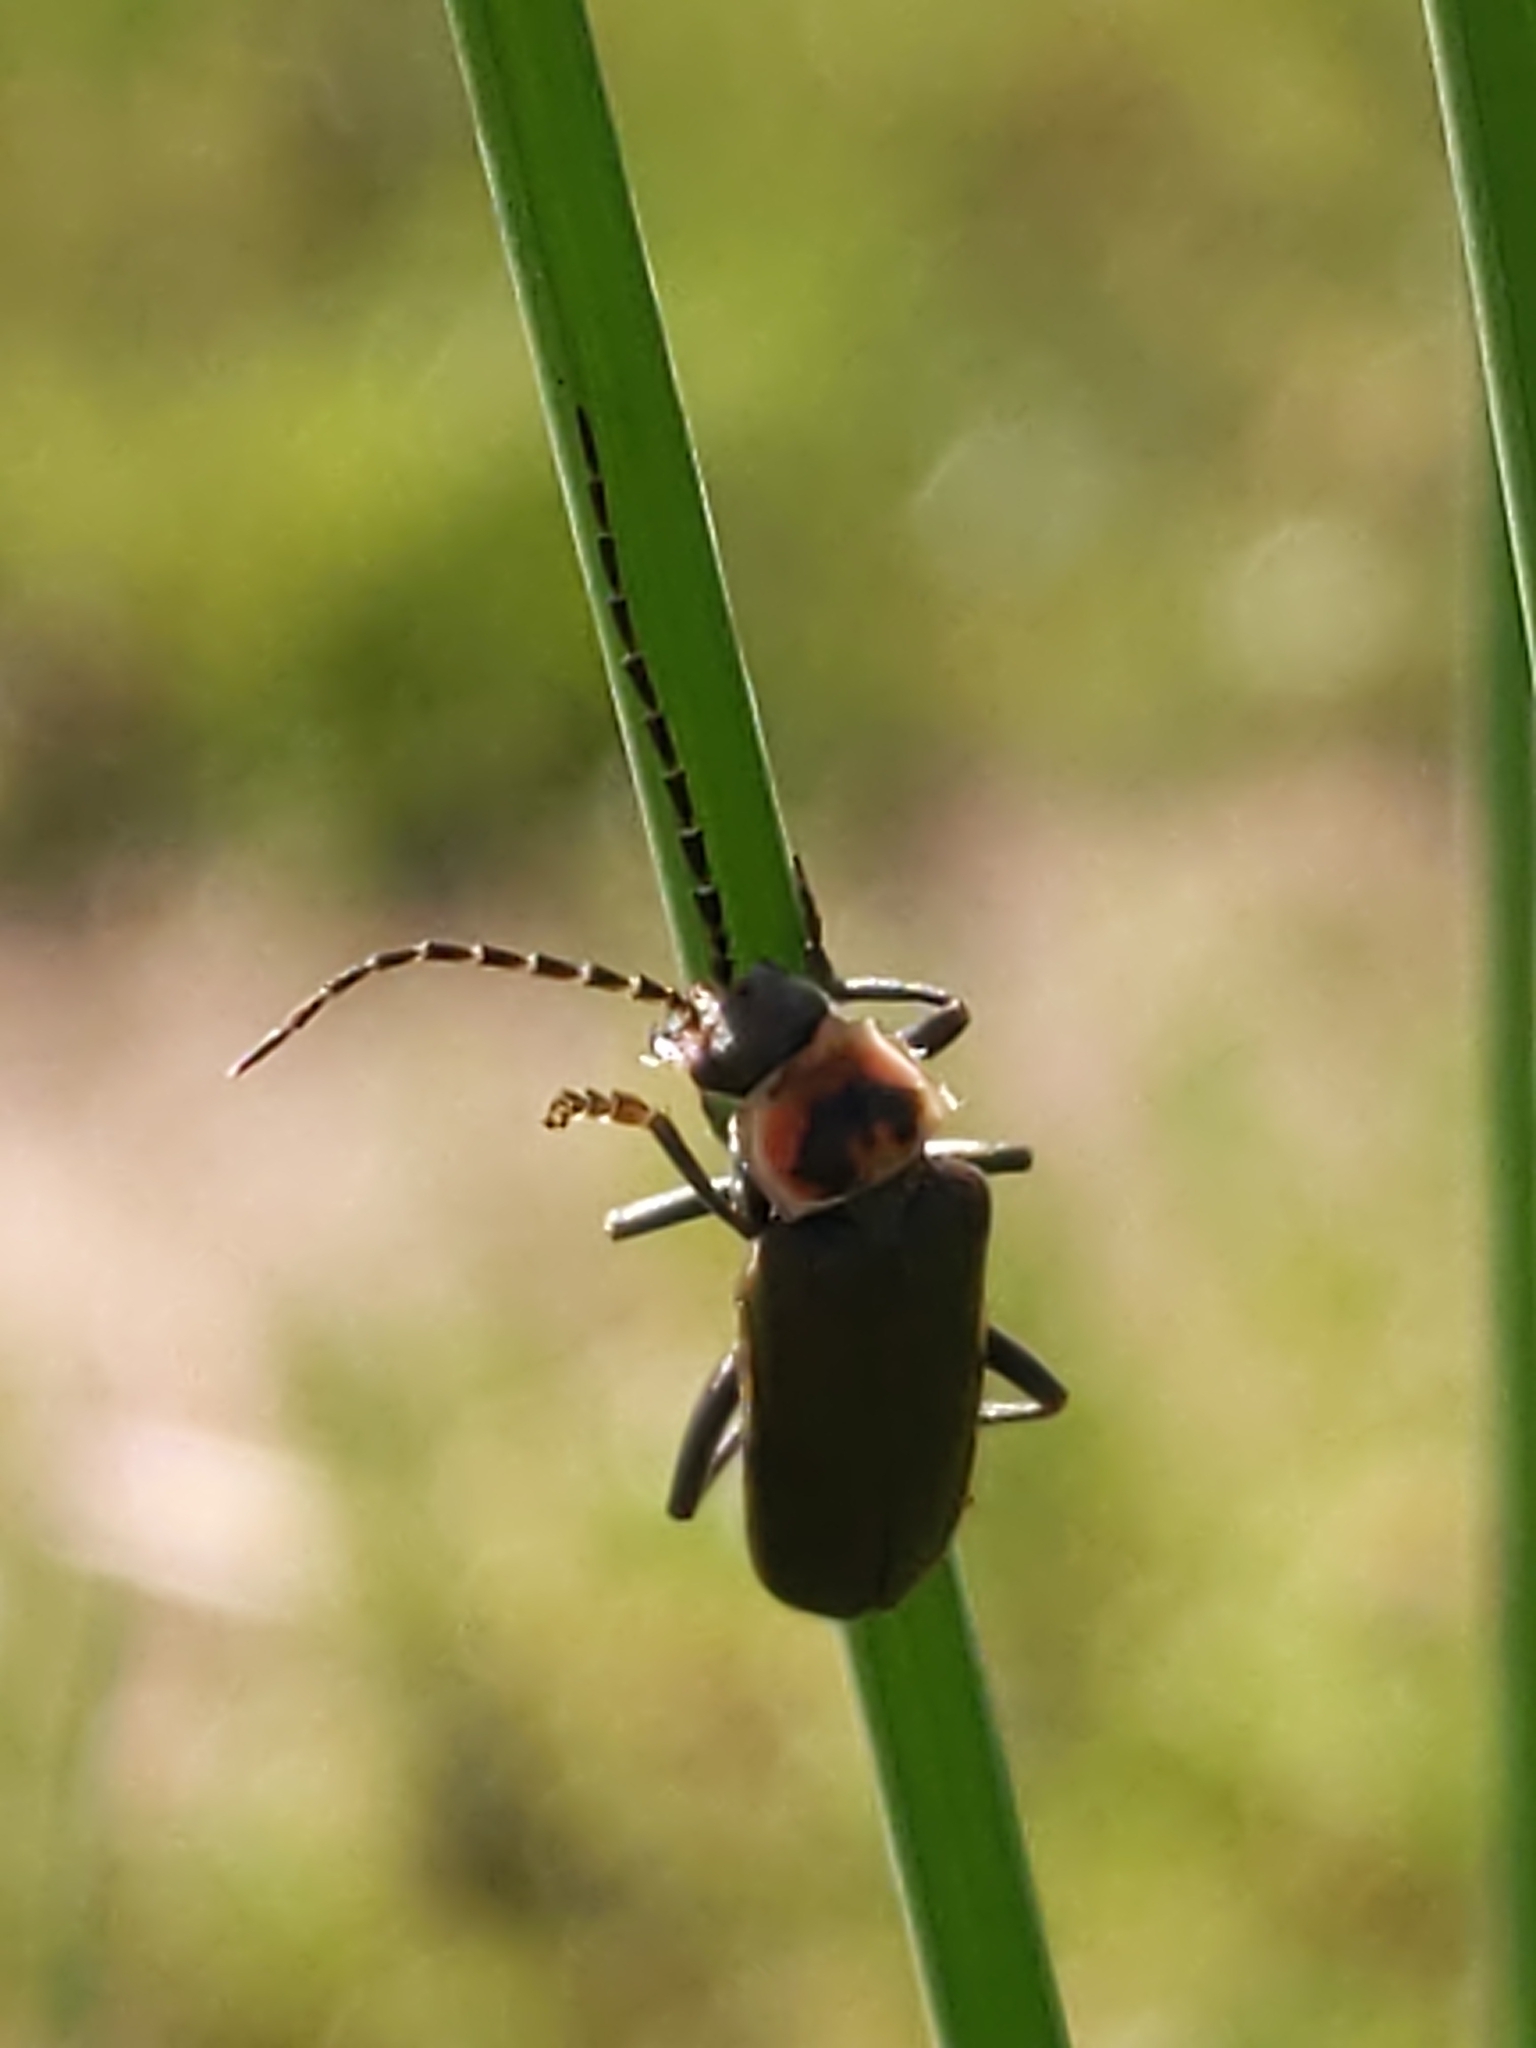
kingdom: Animalia
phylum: Arthropoda
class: Insecta
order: Coleoptera
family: Cantharidae
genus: Atalantycha
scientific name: Atalantycha dentigera
